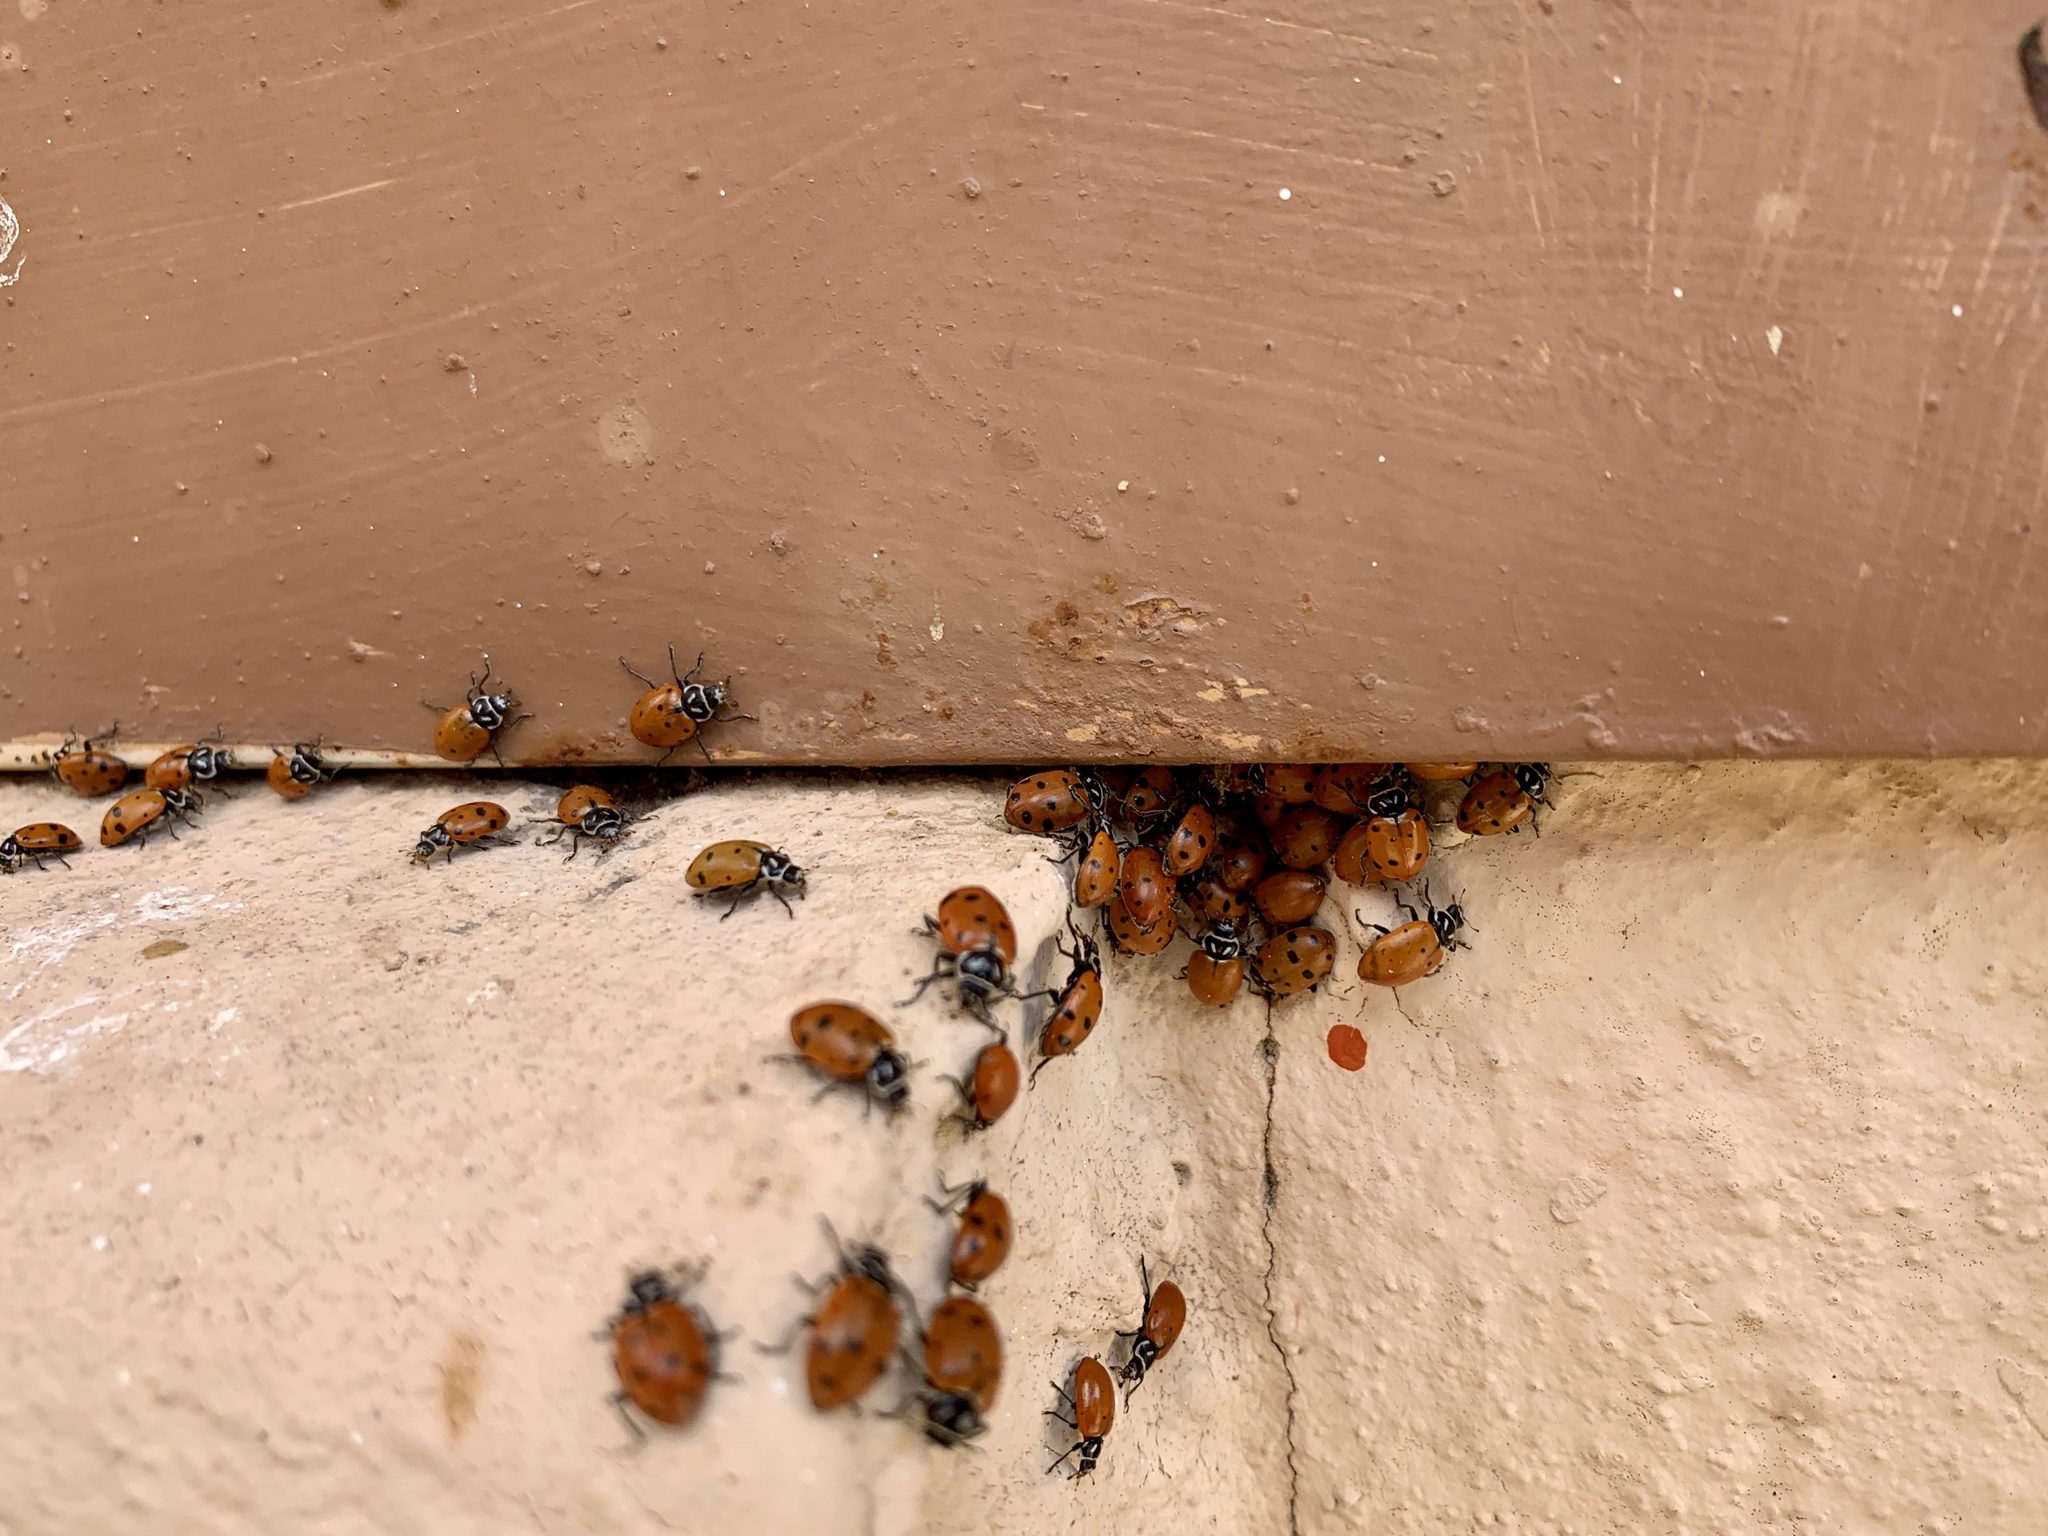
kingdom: Animalia
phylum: Arthropoda
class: Insecta
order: Coleoptera
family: Coccinellidae
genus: Hippodamia
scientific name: Hippodamia convergens
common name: Convergent lady beetle
